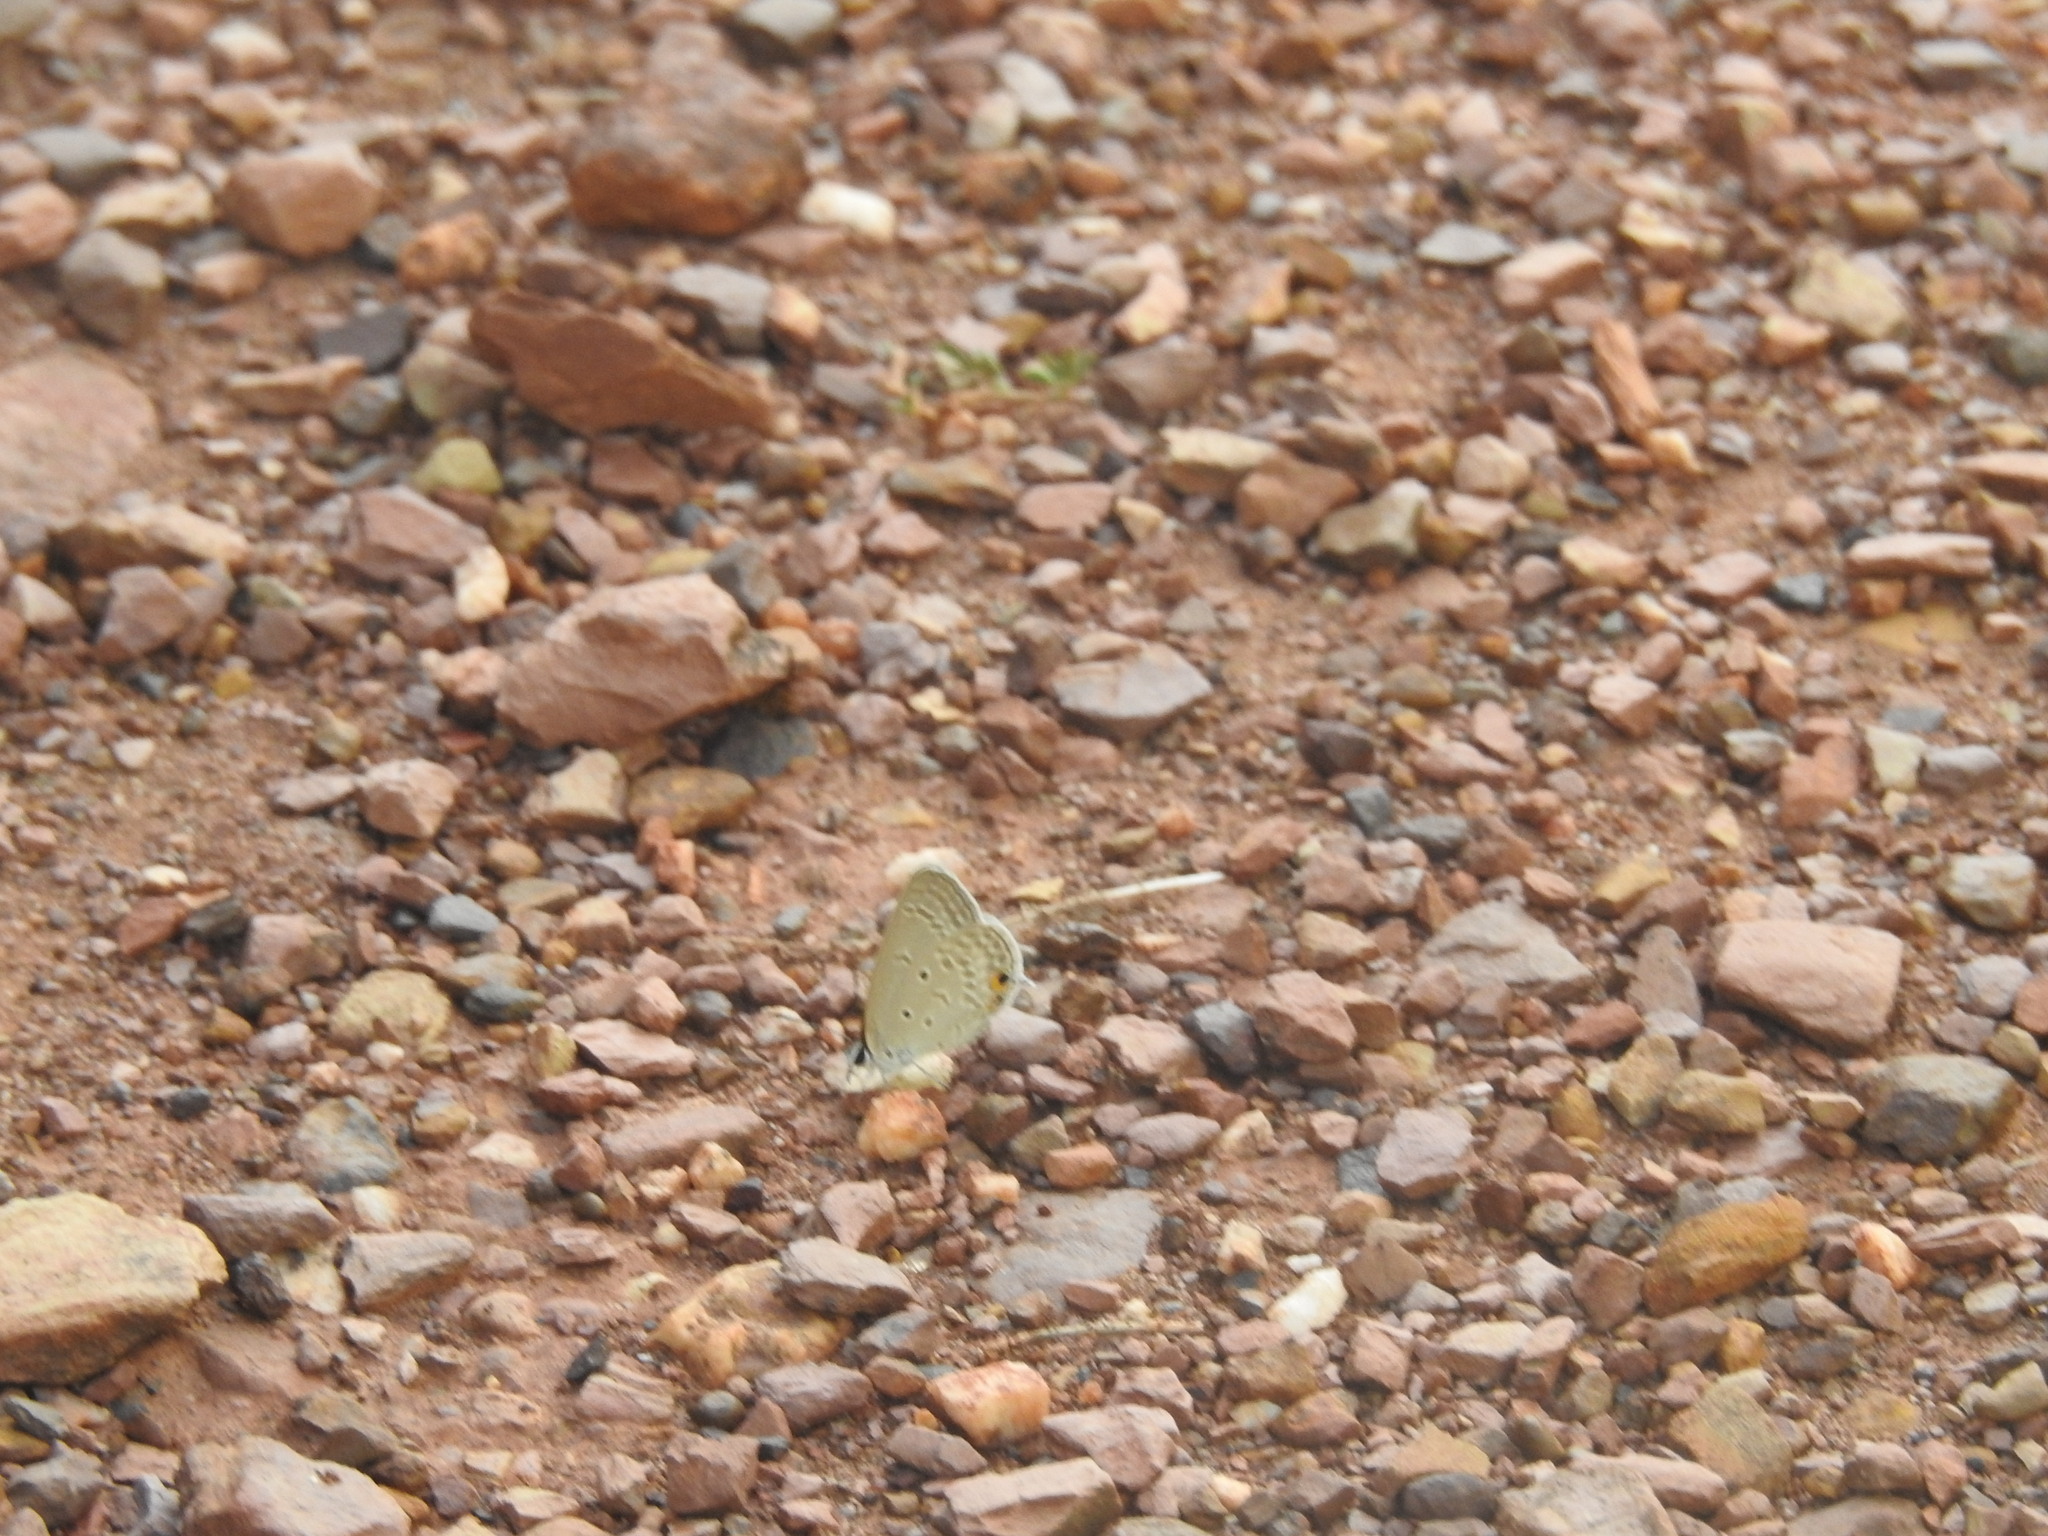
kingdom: Animalia
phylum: Arthropoda
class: Insecta
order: Lepidoptera
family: Lycaenidae
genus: Euchrysops
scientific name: Euchrysops cnejus
